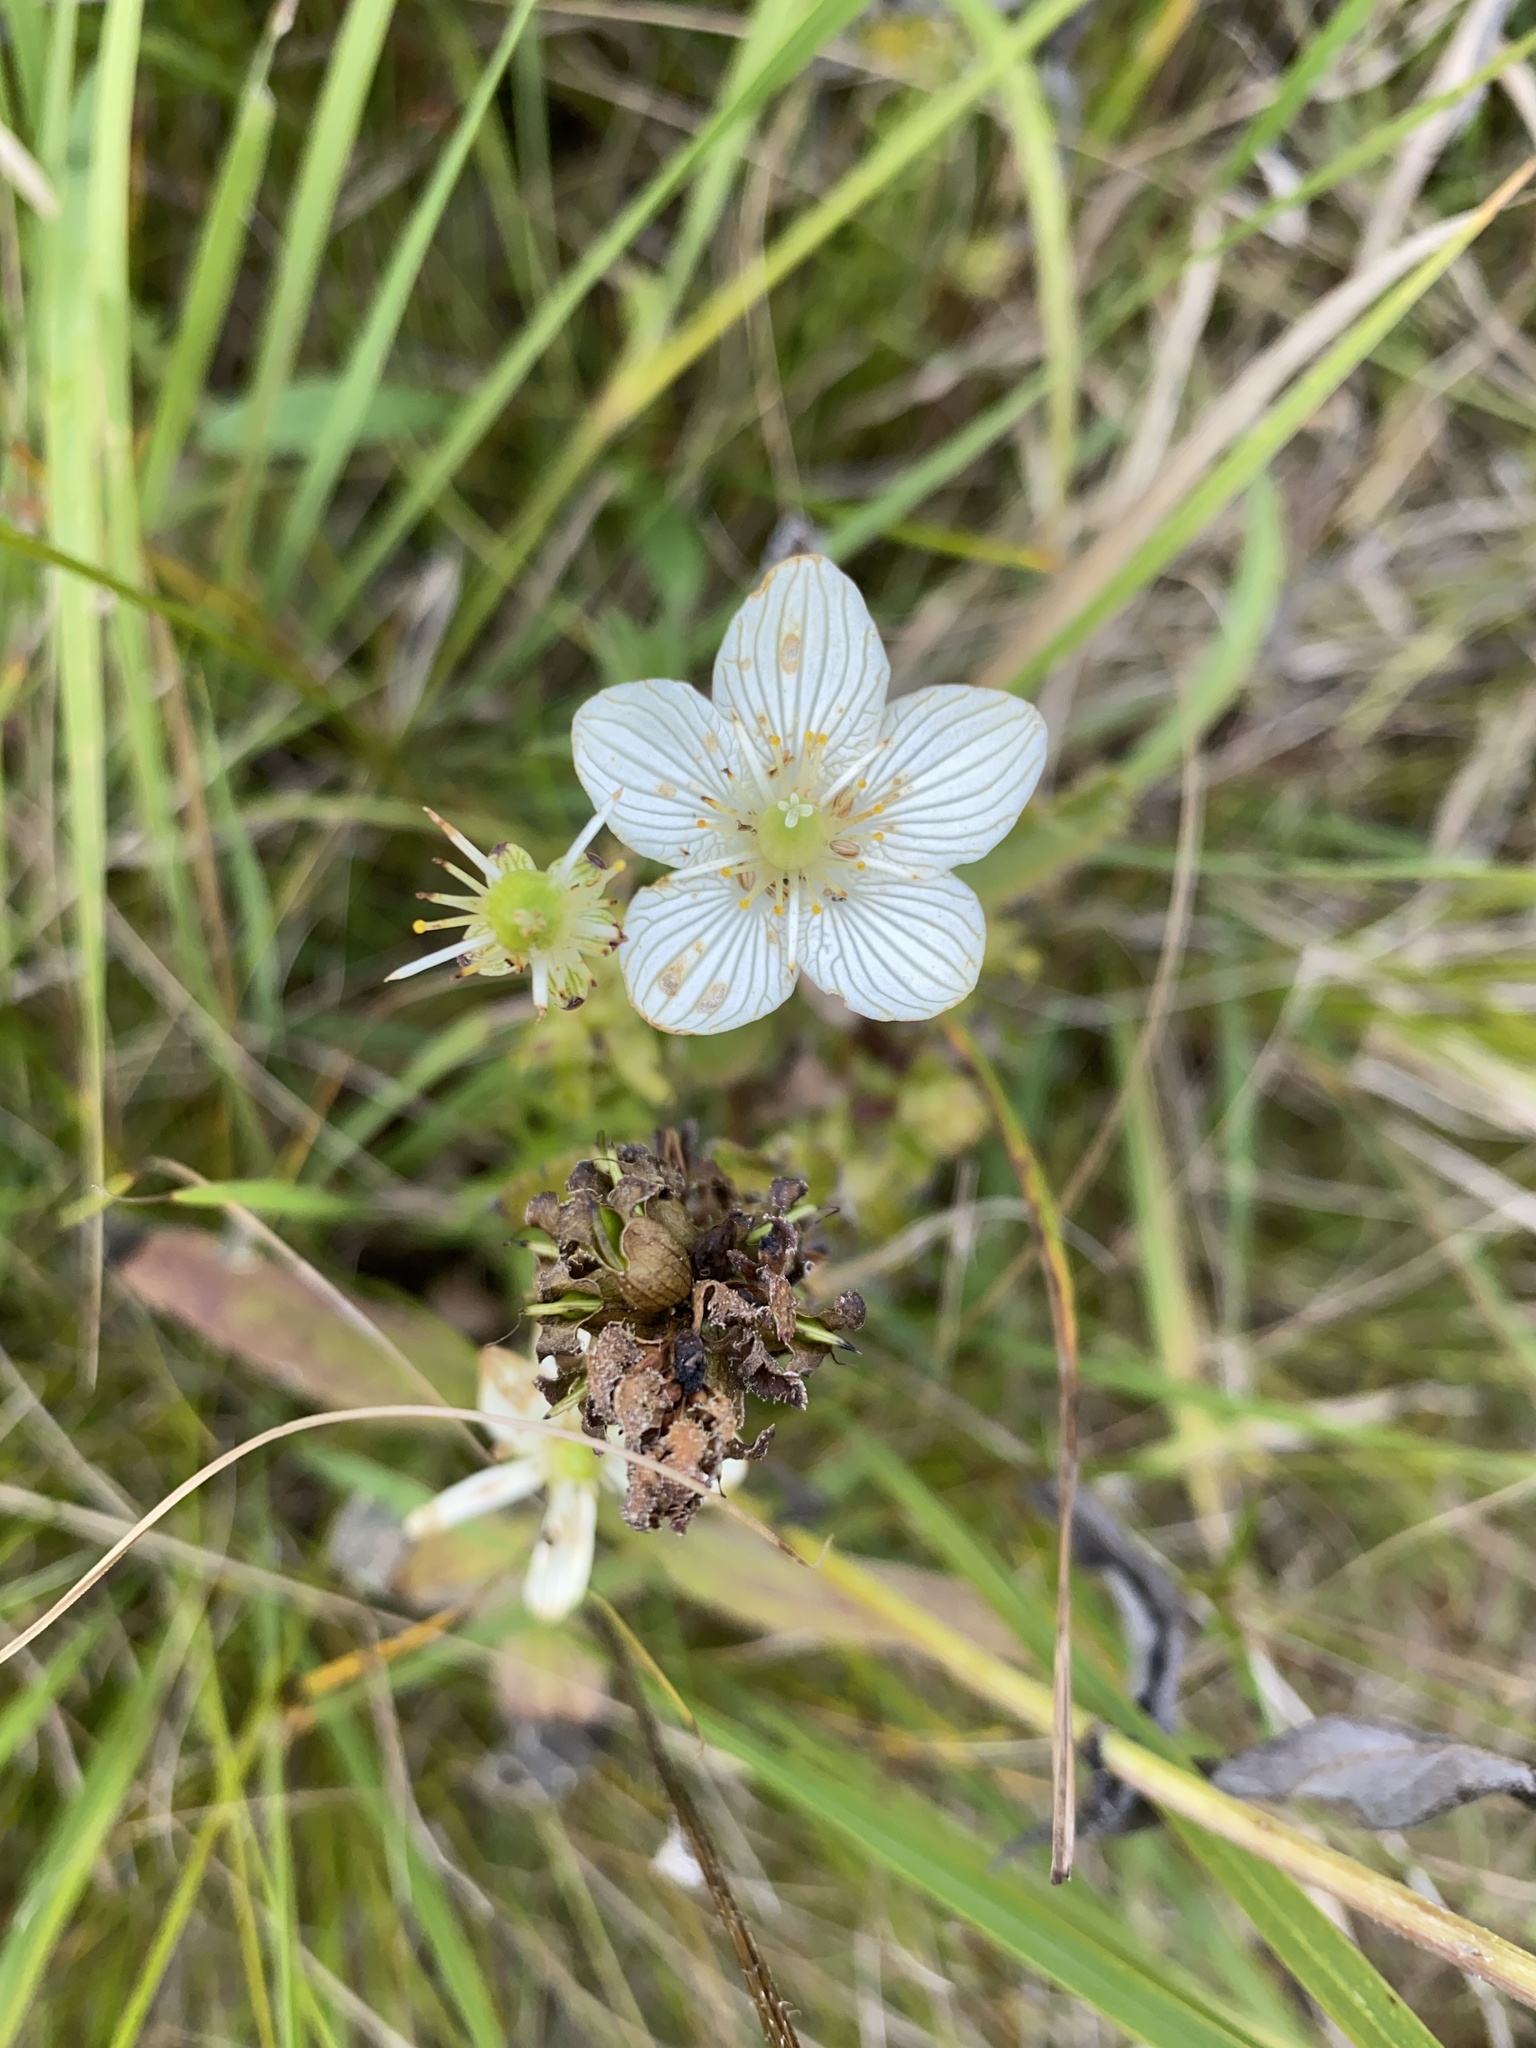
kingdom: Plantae
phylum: Tracheophyta
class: Magnoliopsida
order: Celastrales
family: Parnassiaceae
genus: Parnassia
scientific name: Parnassia glauca
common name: American grass-of-parnassus
